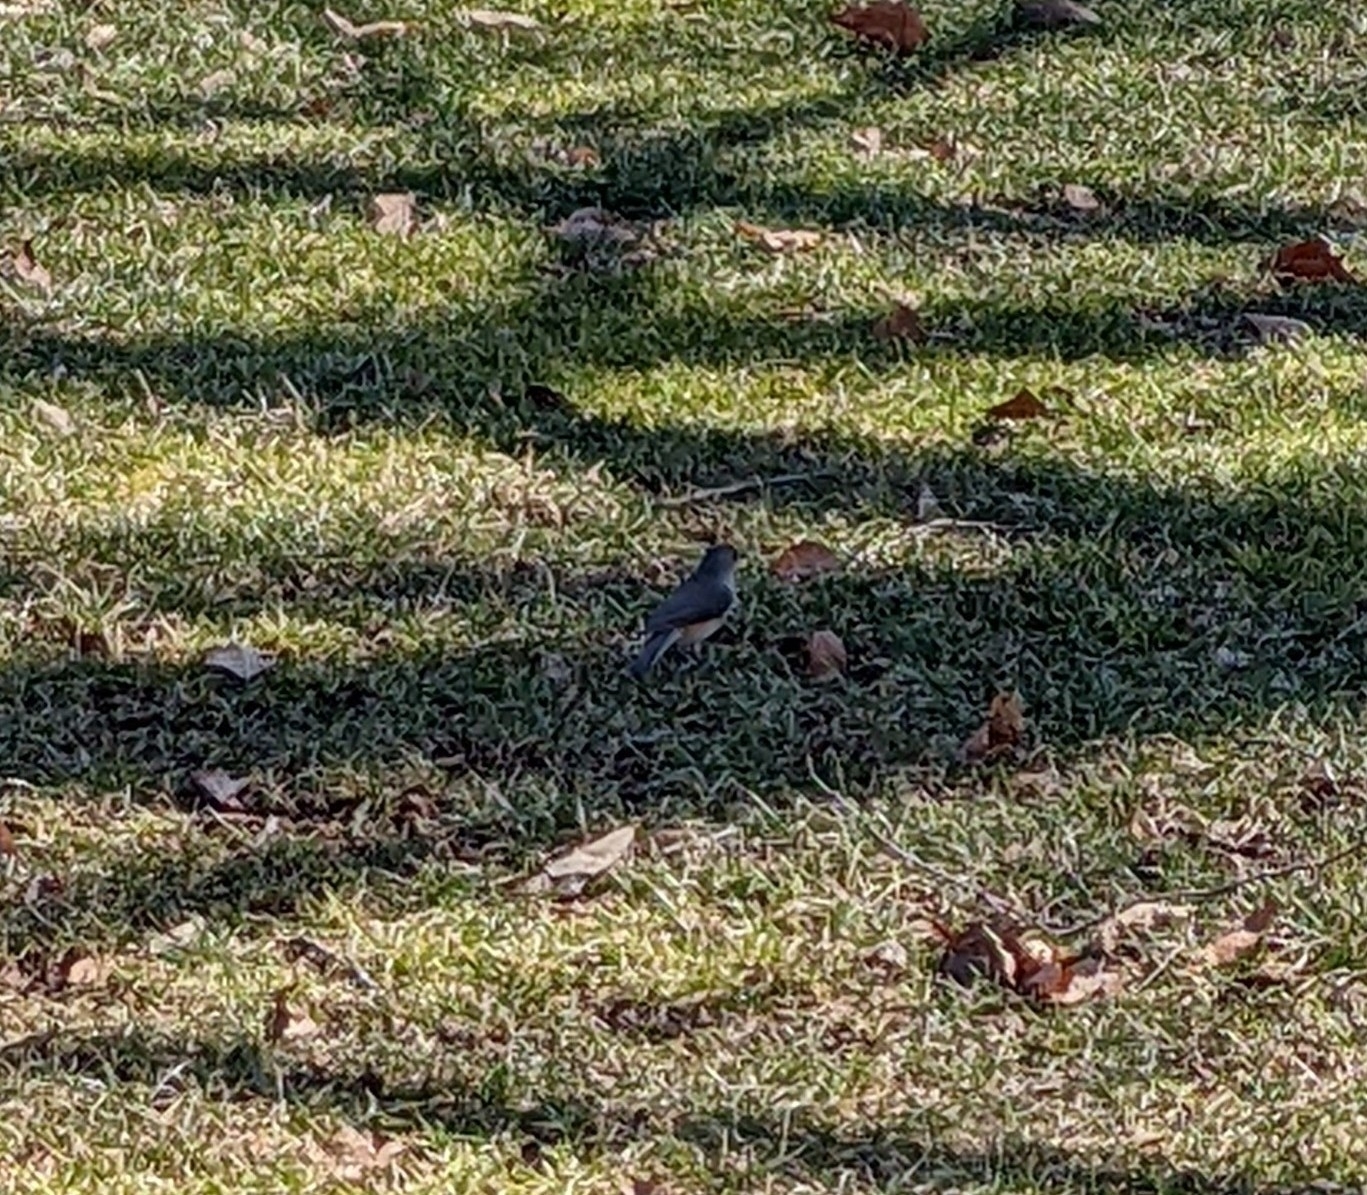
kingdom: Animalia
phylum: Chordata
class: Aves
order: Passeriformes
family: Paridae
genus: Baeolophus
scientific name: Baeolophus bicolor
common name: Tufted titmouse
